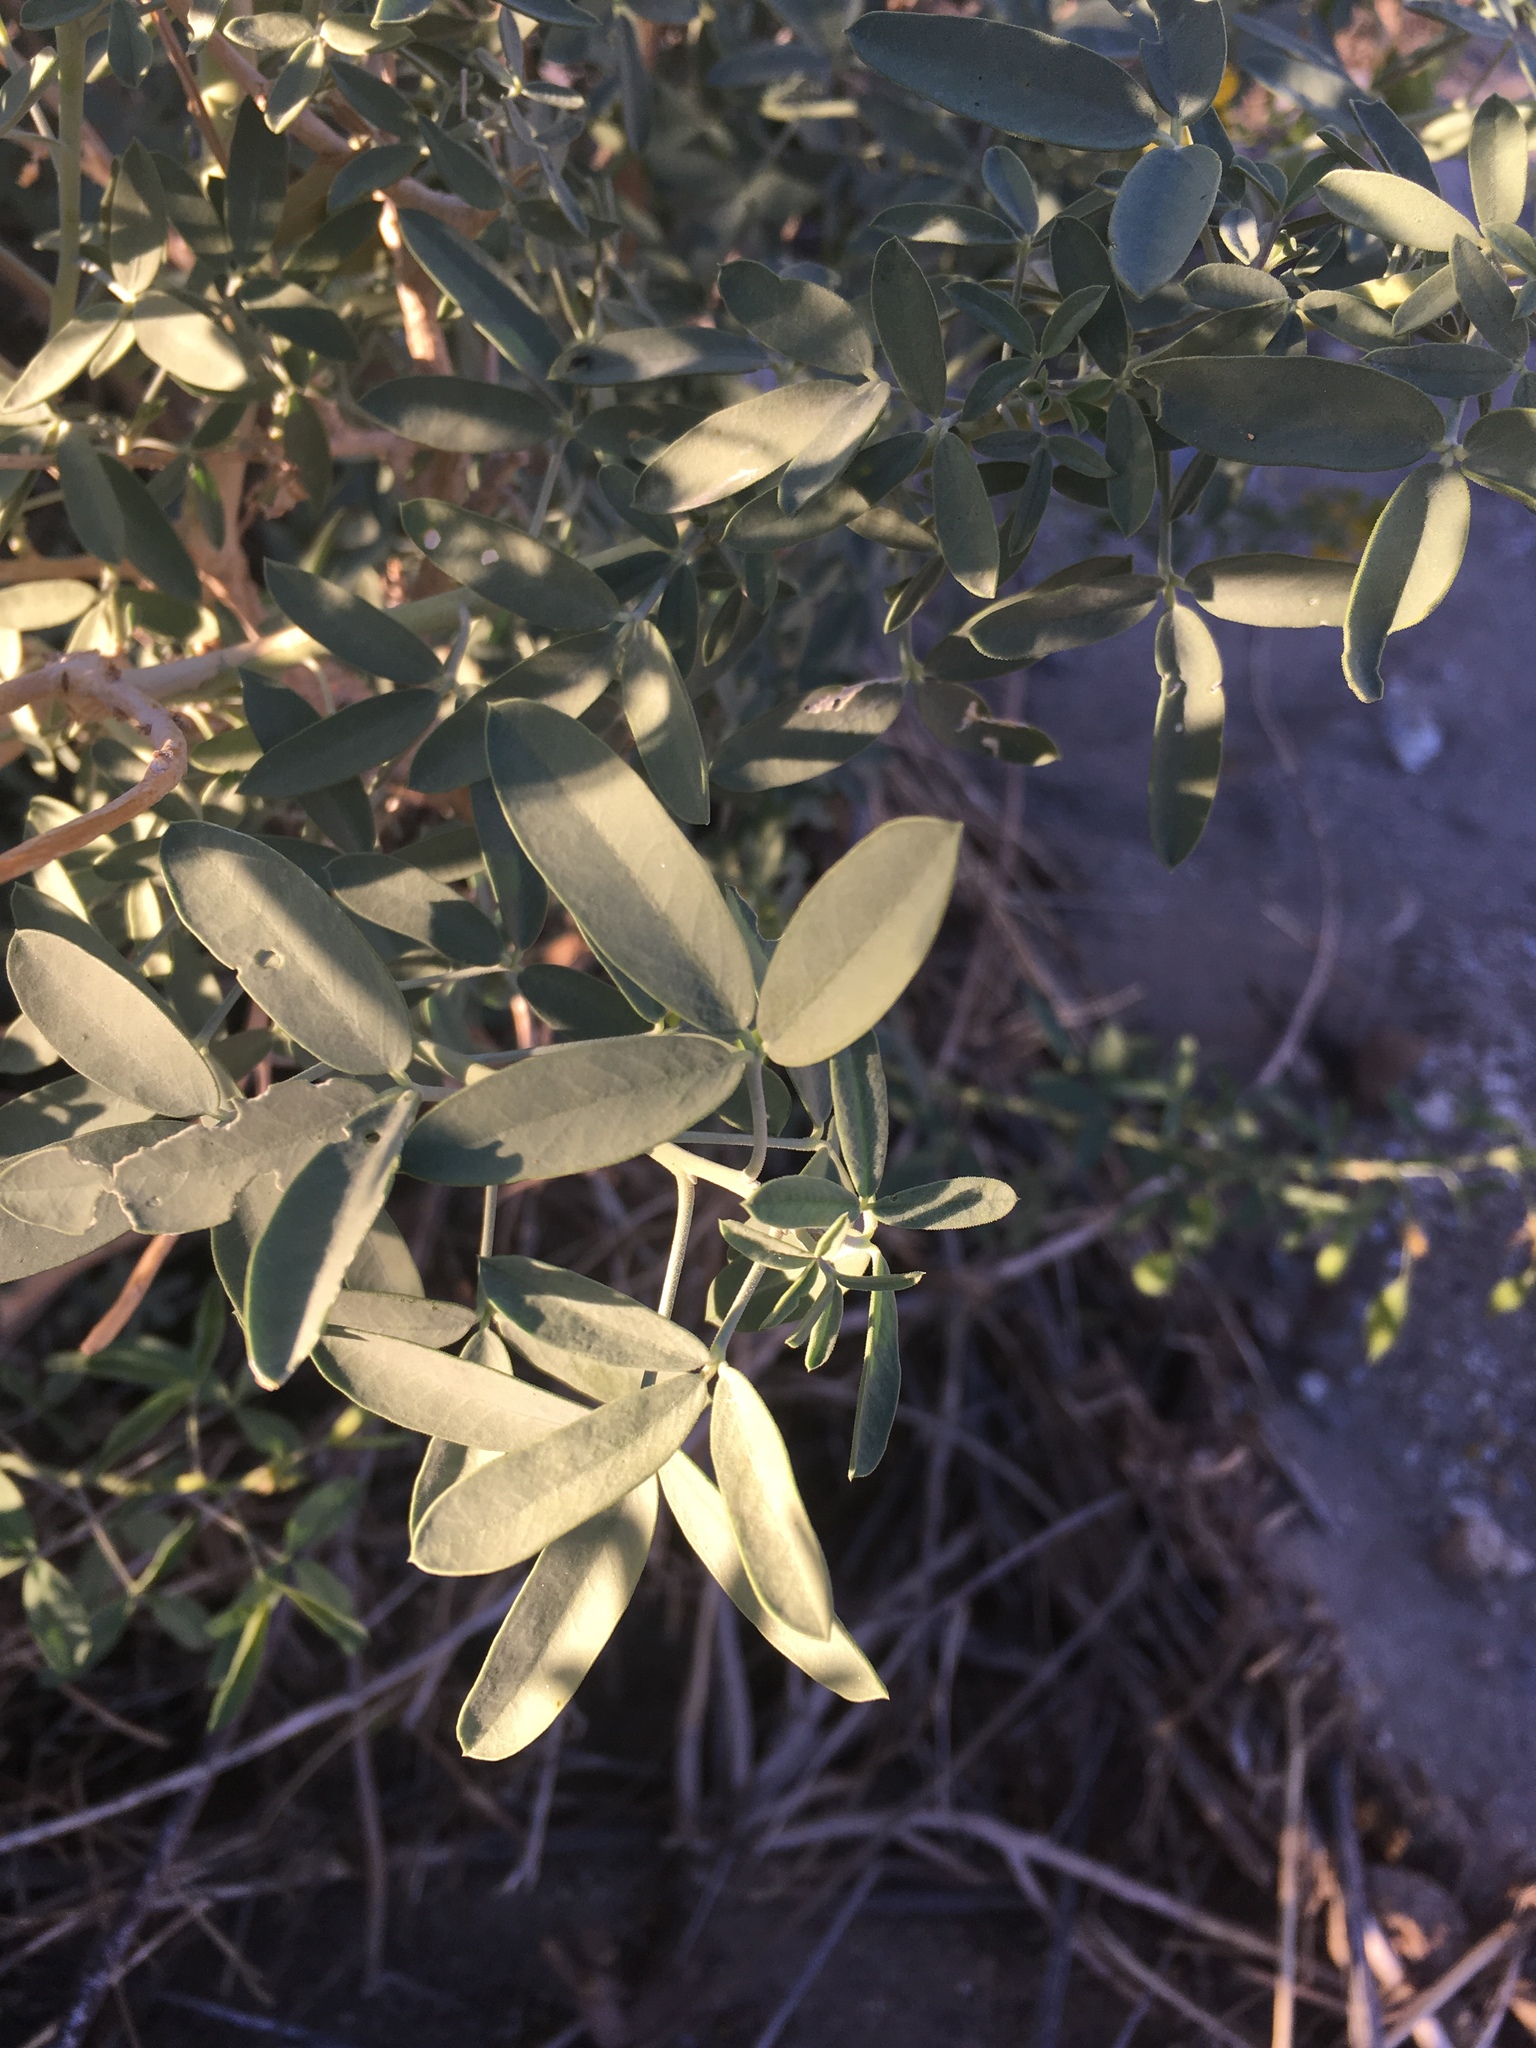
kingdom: Plantae
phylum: Tracheophyta
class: Magnoliopsida
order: Brassicales
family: Cleomaceae
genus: Cleomella
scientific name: Cleomella arborea
